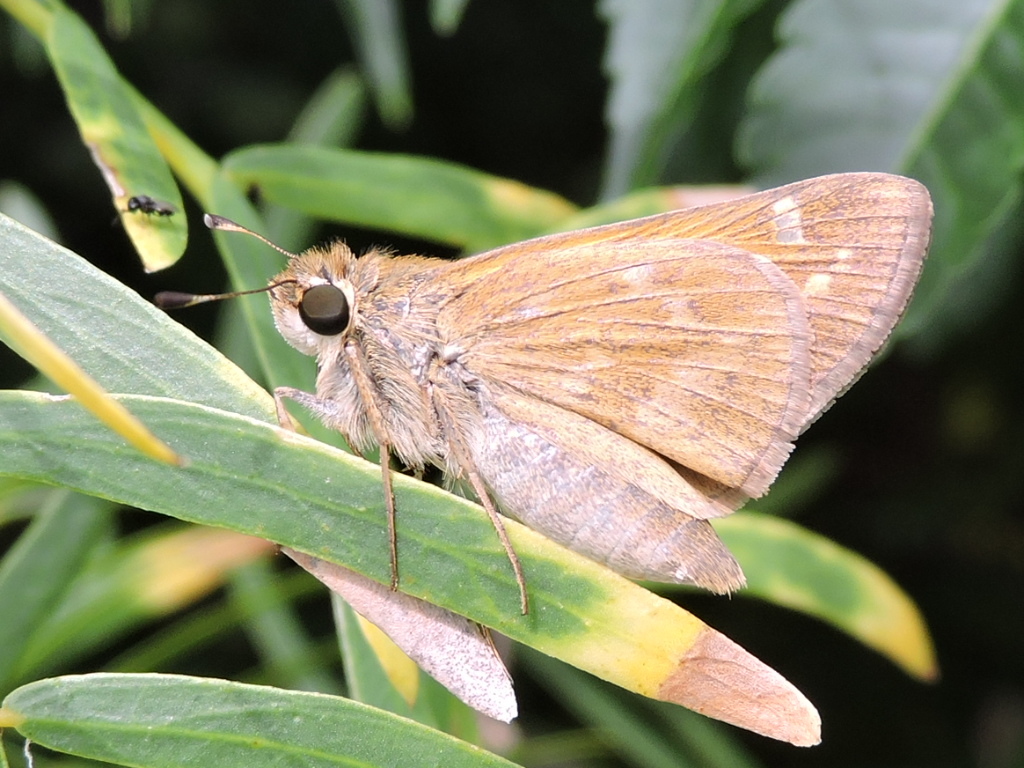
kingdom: Animalia
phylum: Arthropoda
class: Insecta
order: Lepidoptera
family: Hesperiidae
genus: Atalopedes
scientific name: Atalopedes
